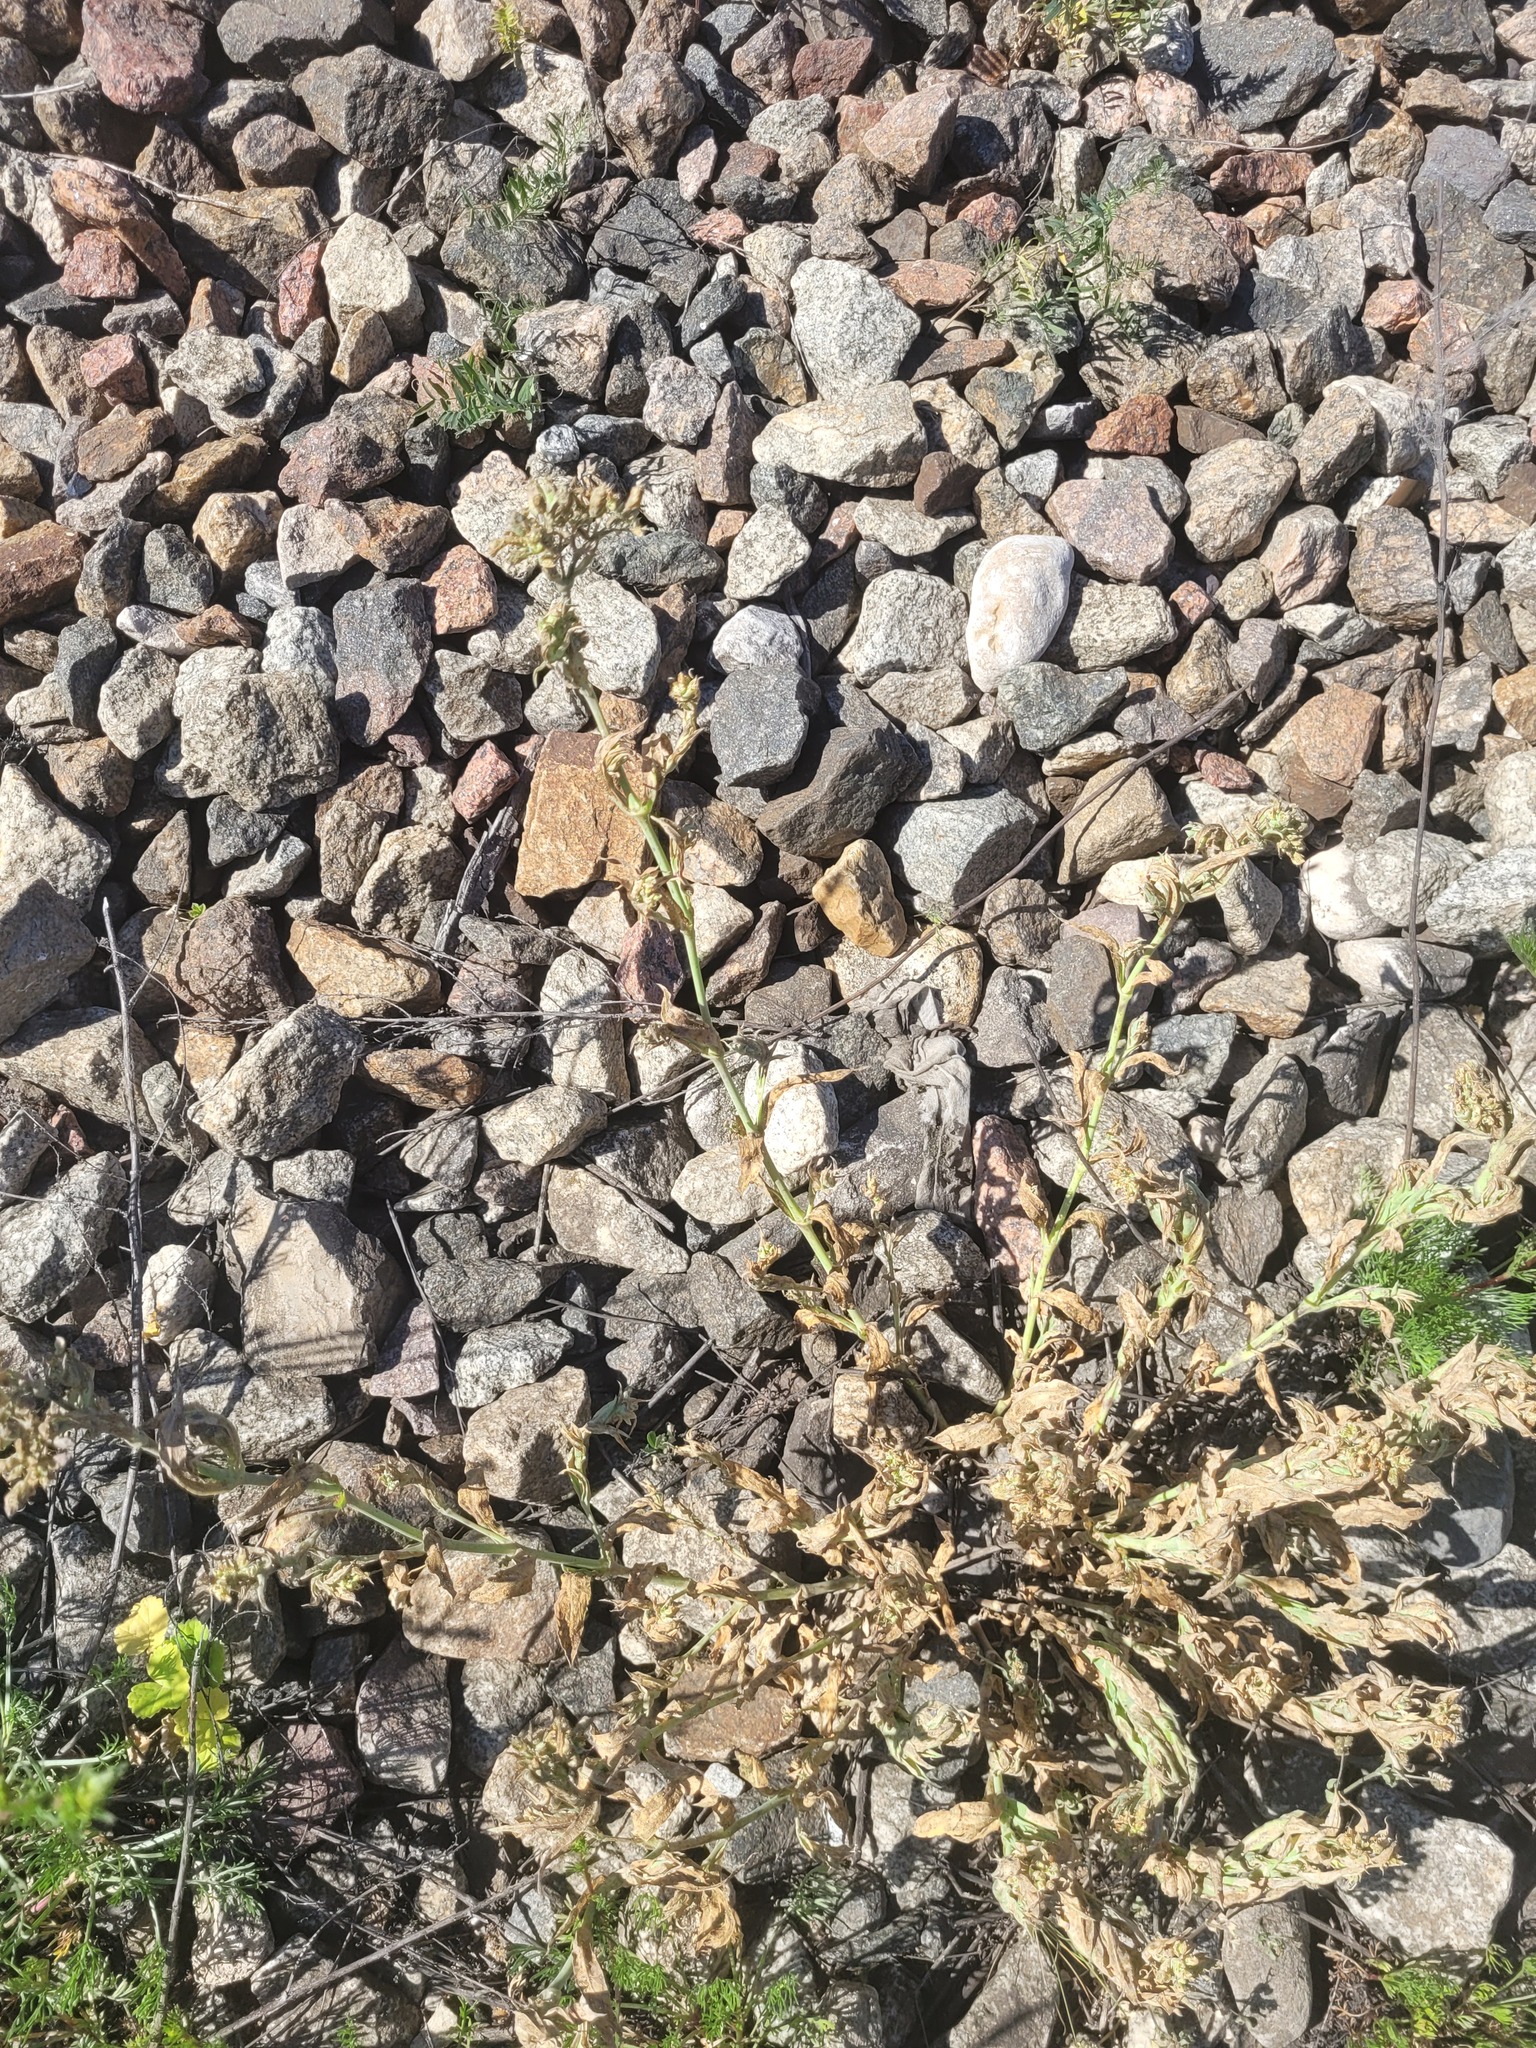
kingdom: Plantae
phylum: Tracheophyta
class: Magnoliopsida
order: Caryophyllales
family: Caryophyllaceae
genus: Silene
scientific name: Silene vulgaris
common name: Bladder campion
